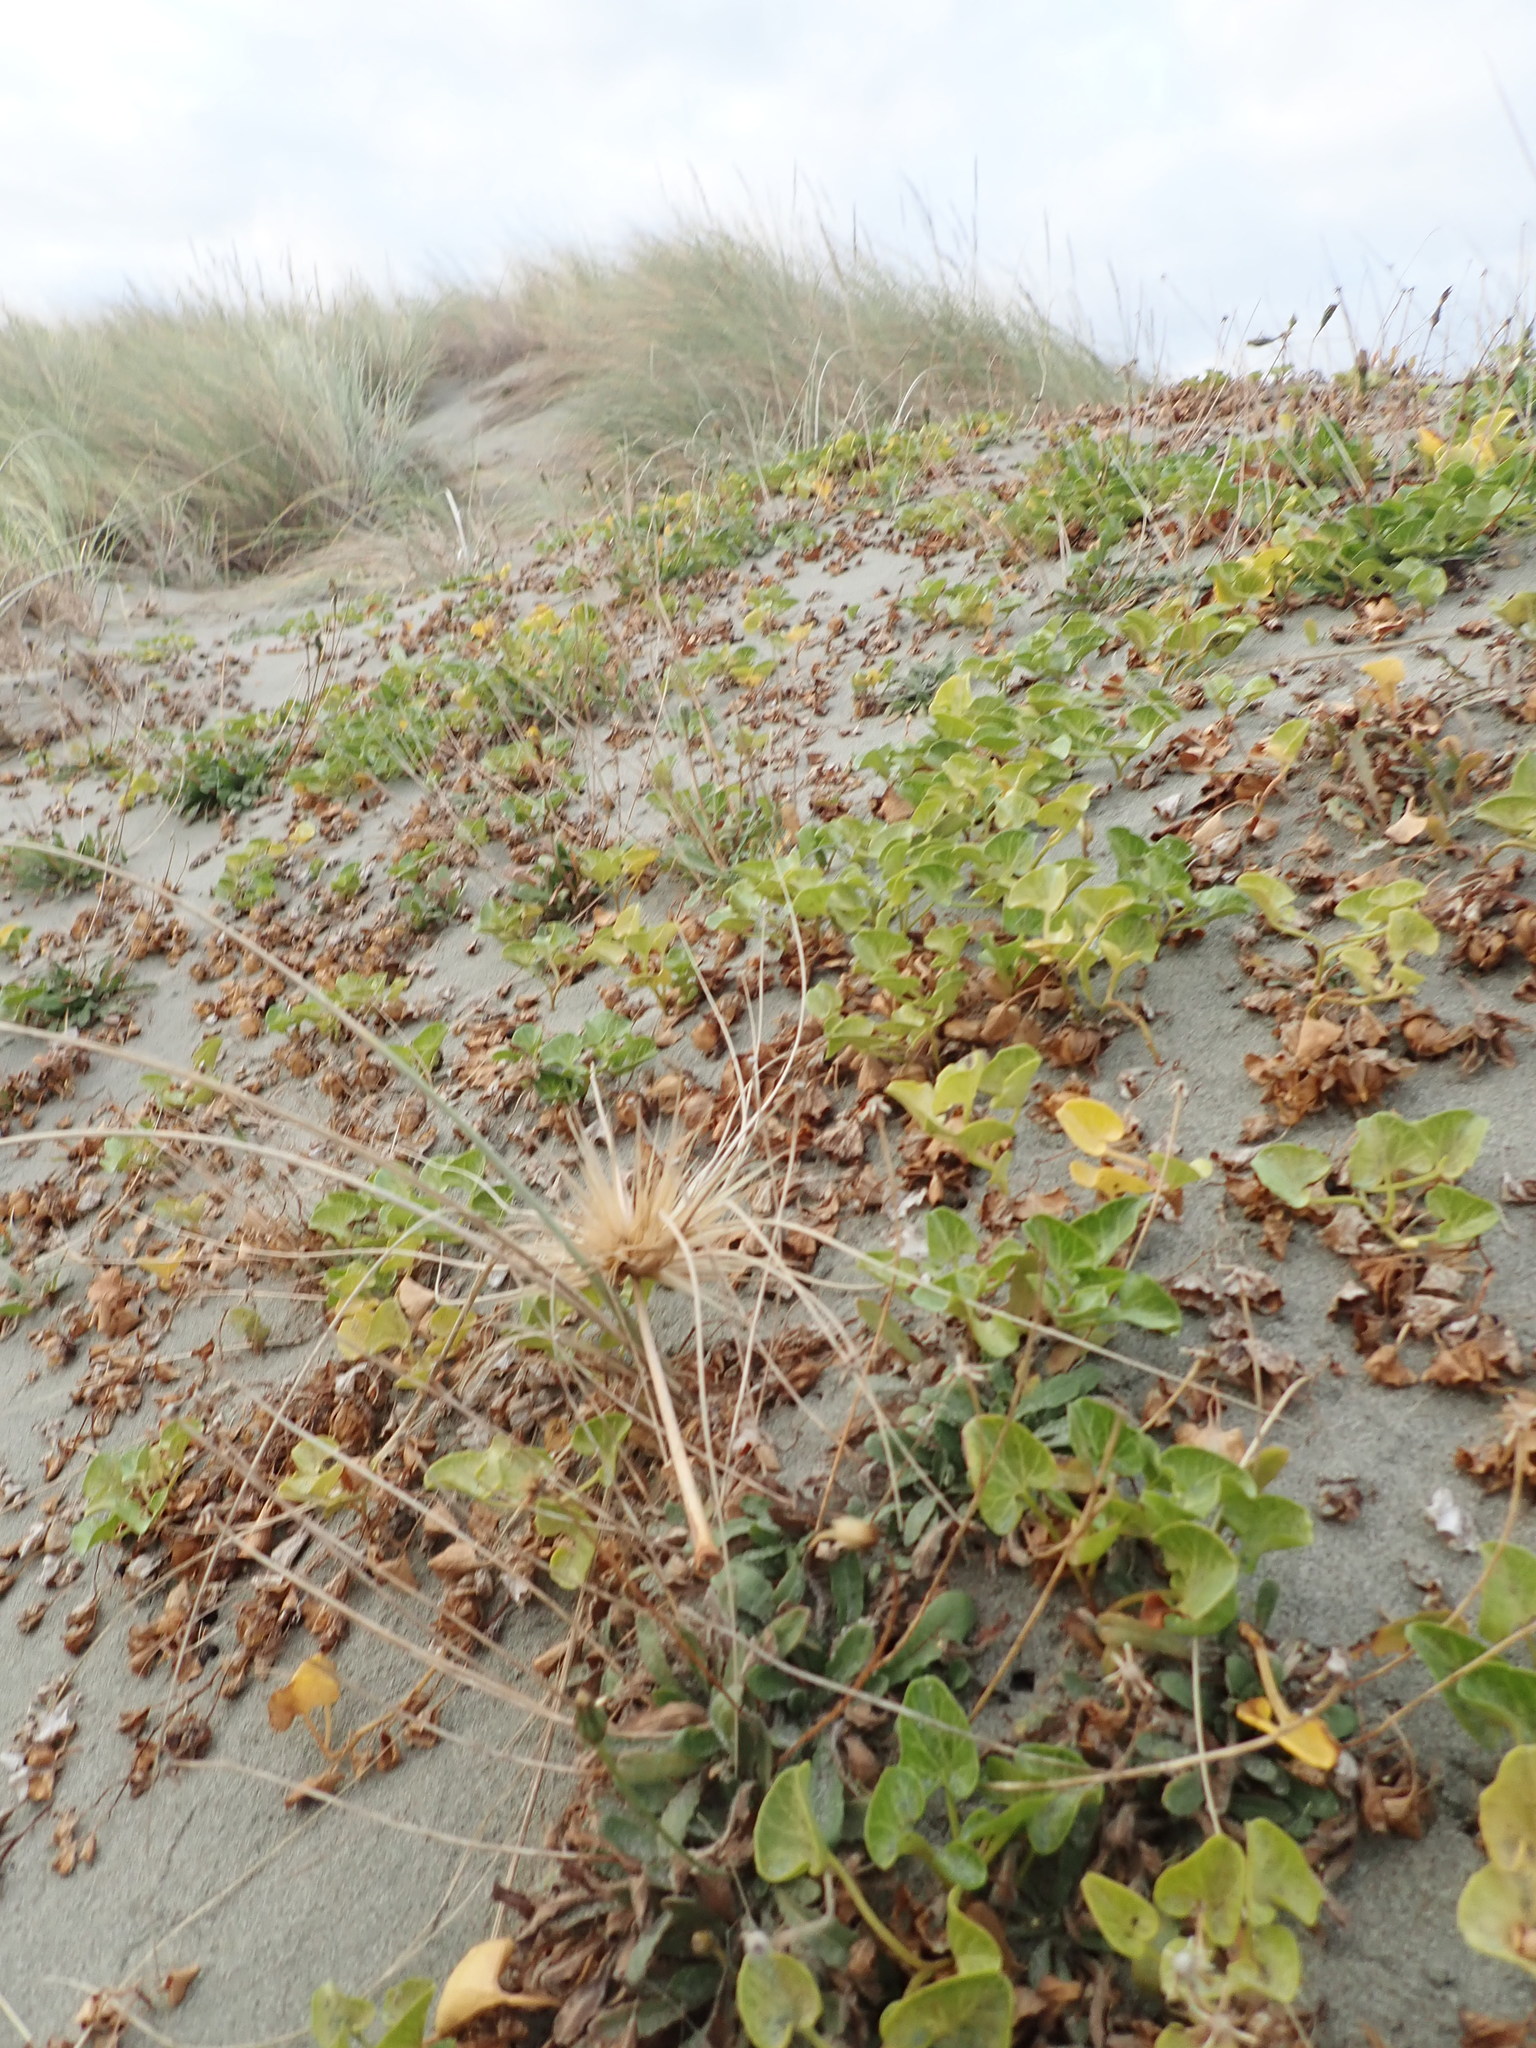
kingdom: Plantae
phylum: Tracheophyta
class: Magnoliopsida
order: Solanales
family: Convolvulaceae
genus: Calystegia
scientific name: Calystegia soldanella
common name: Sea bindweed
